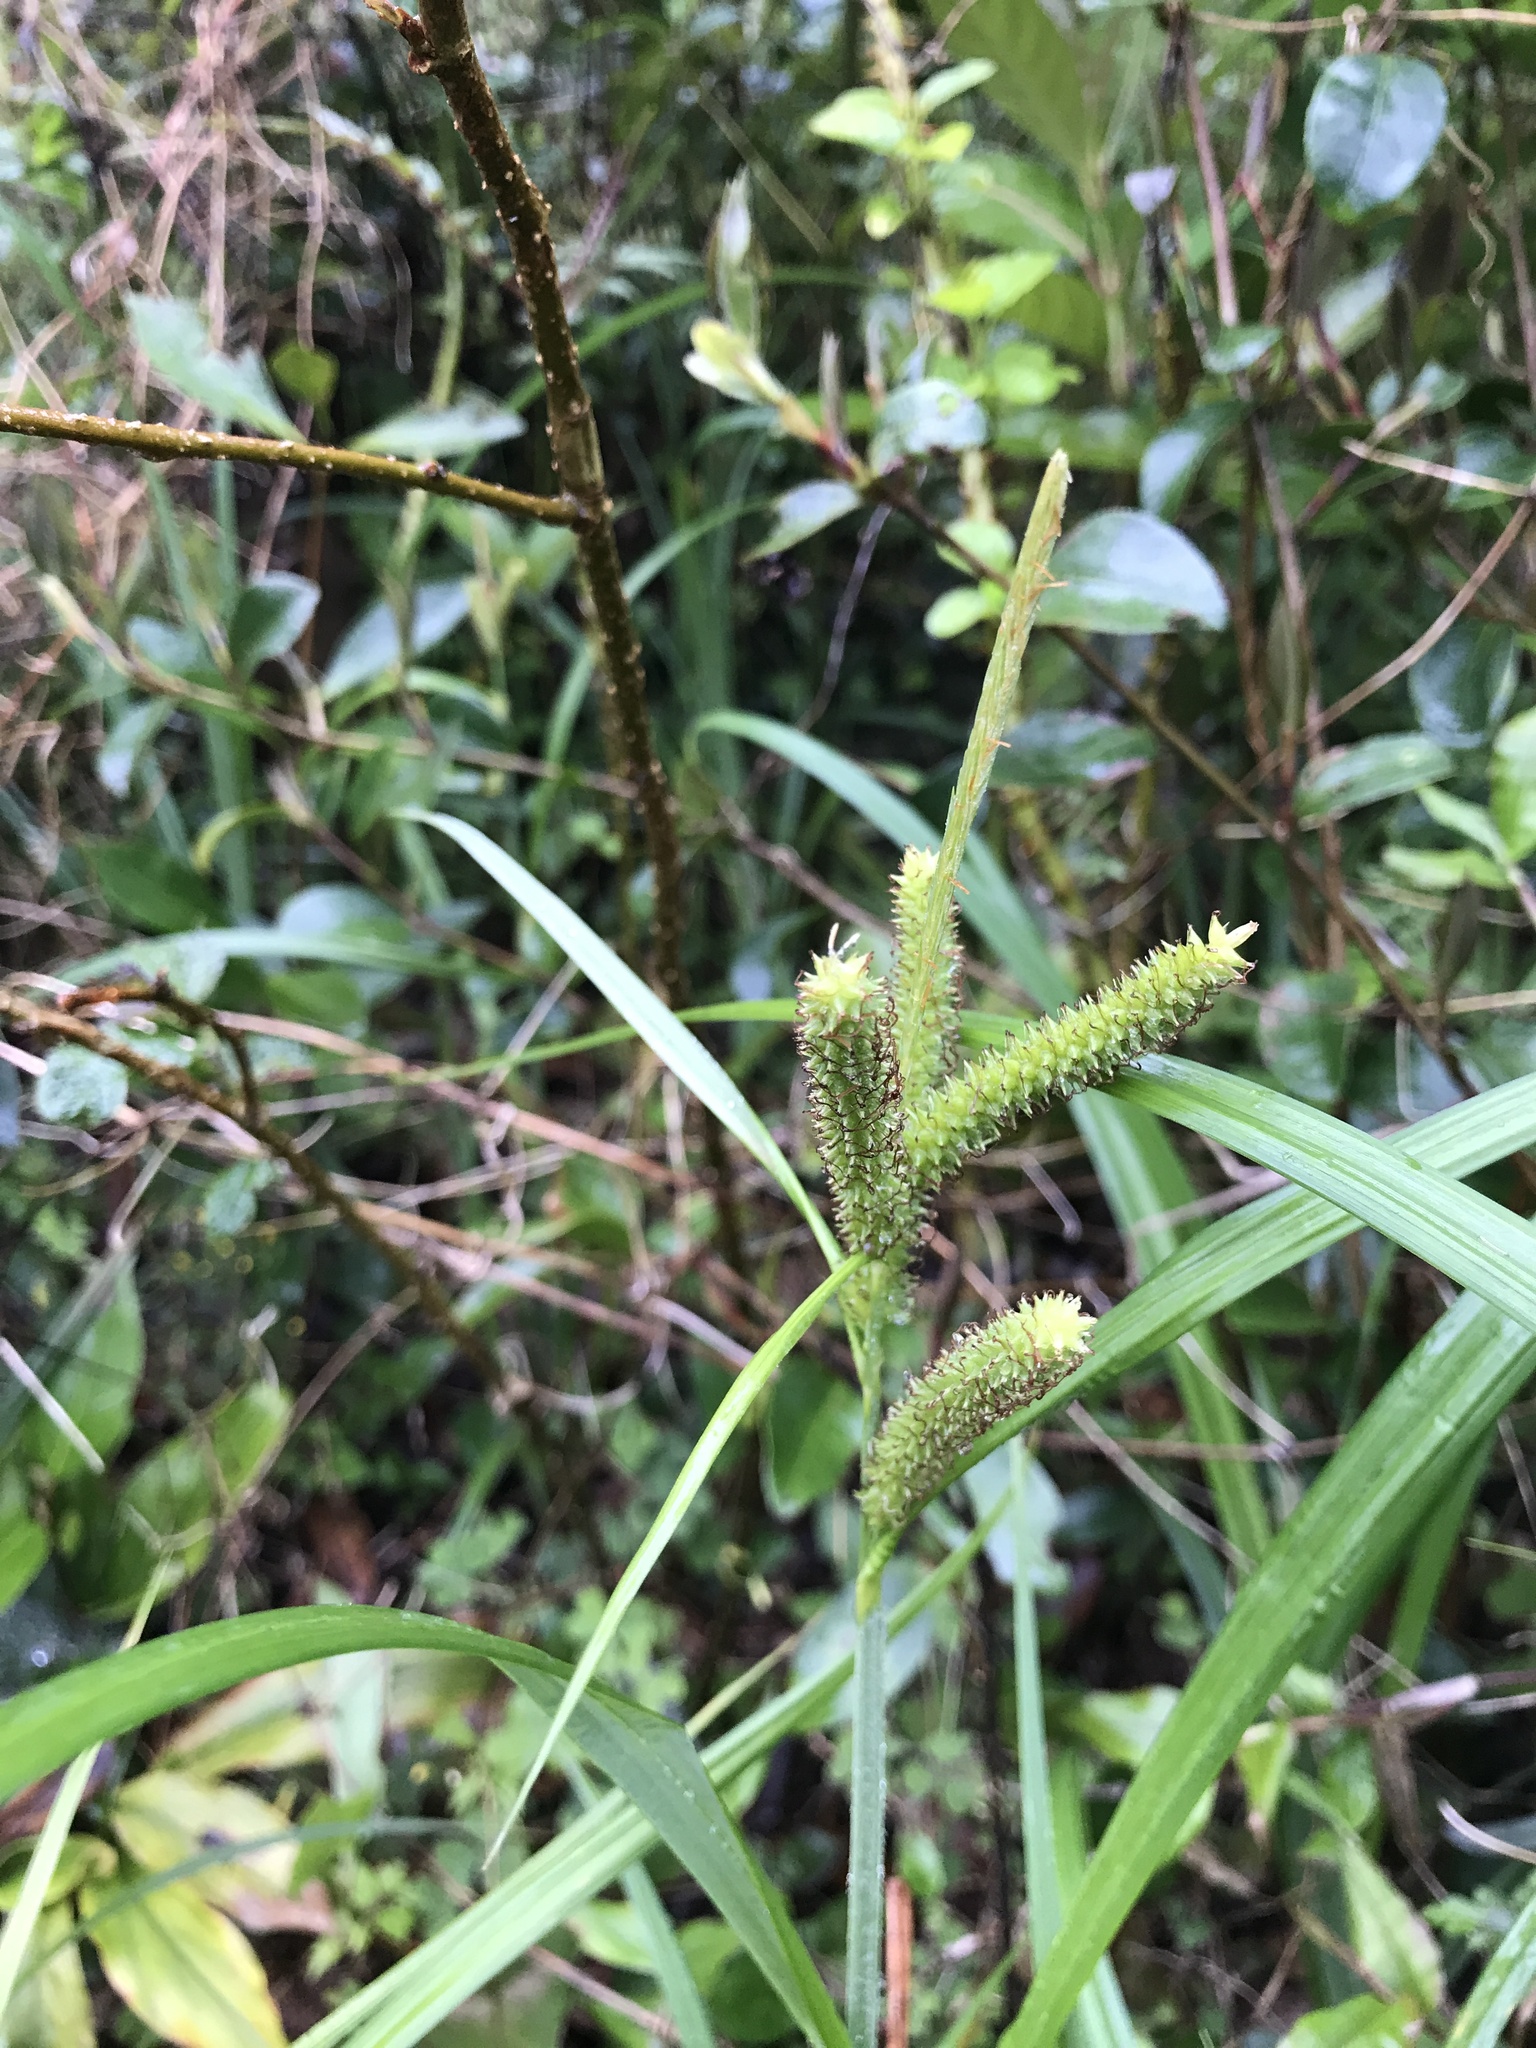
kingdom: Plantae
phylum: Tracheophyta
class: Liliopsida
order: Poales
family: Cyperaceae
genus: Carex
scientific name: Carex alopecuroides
